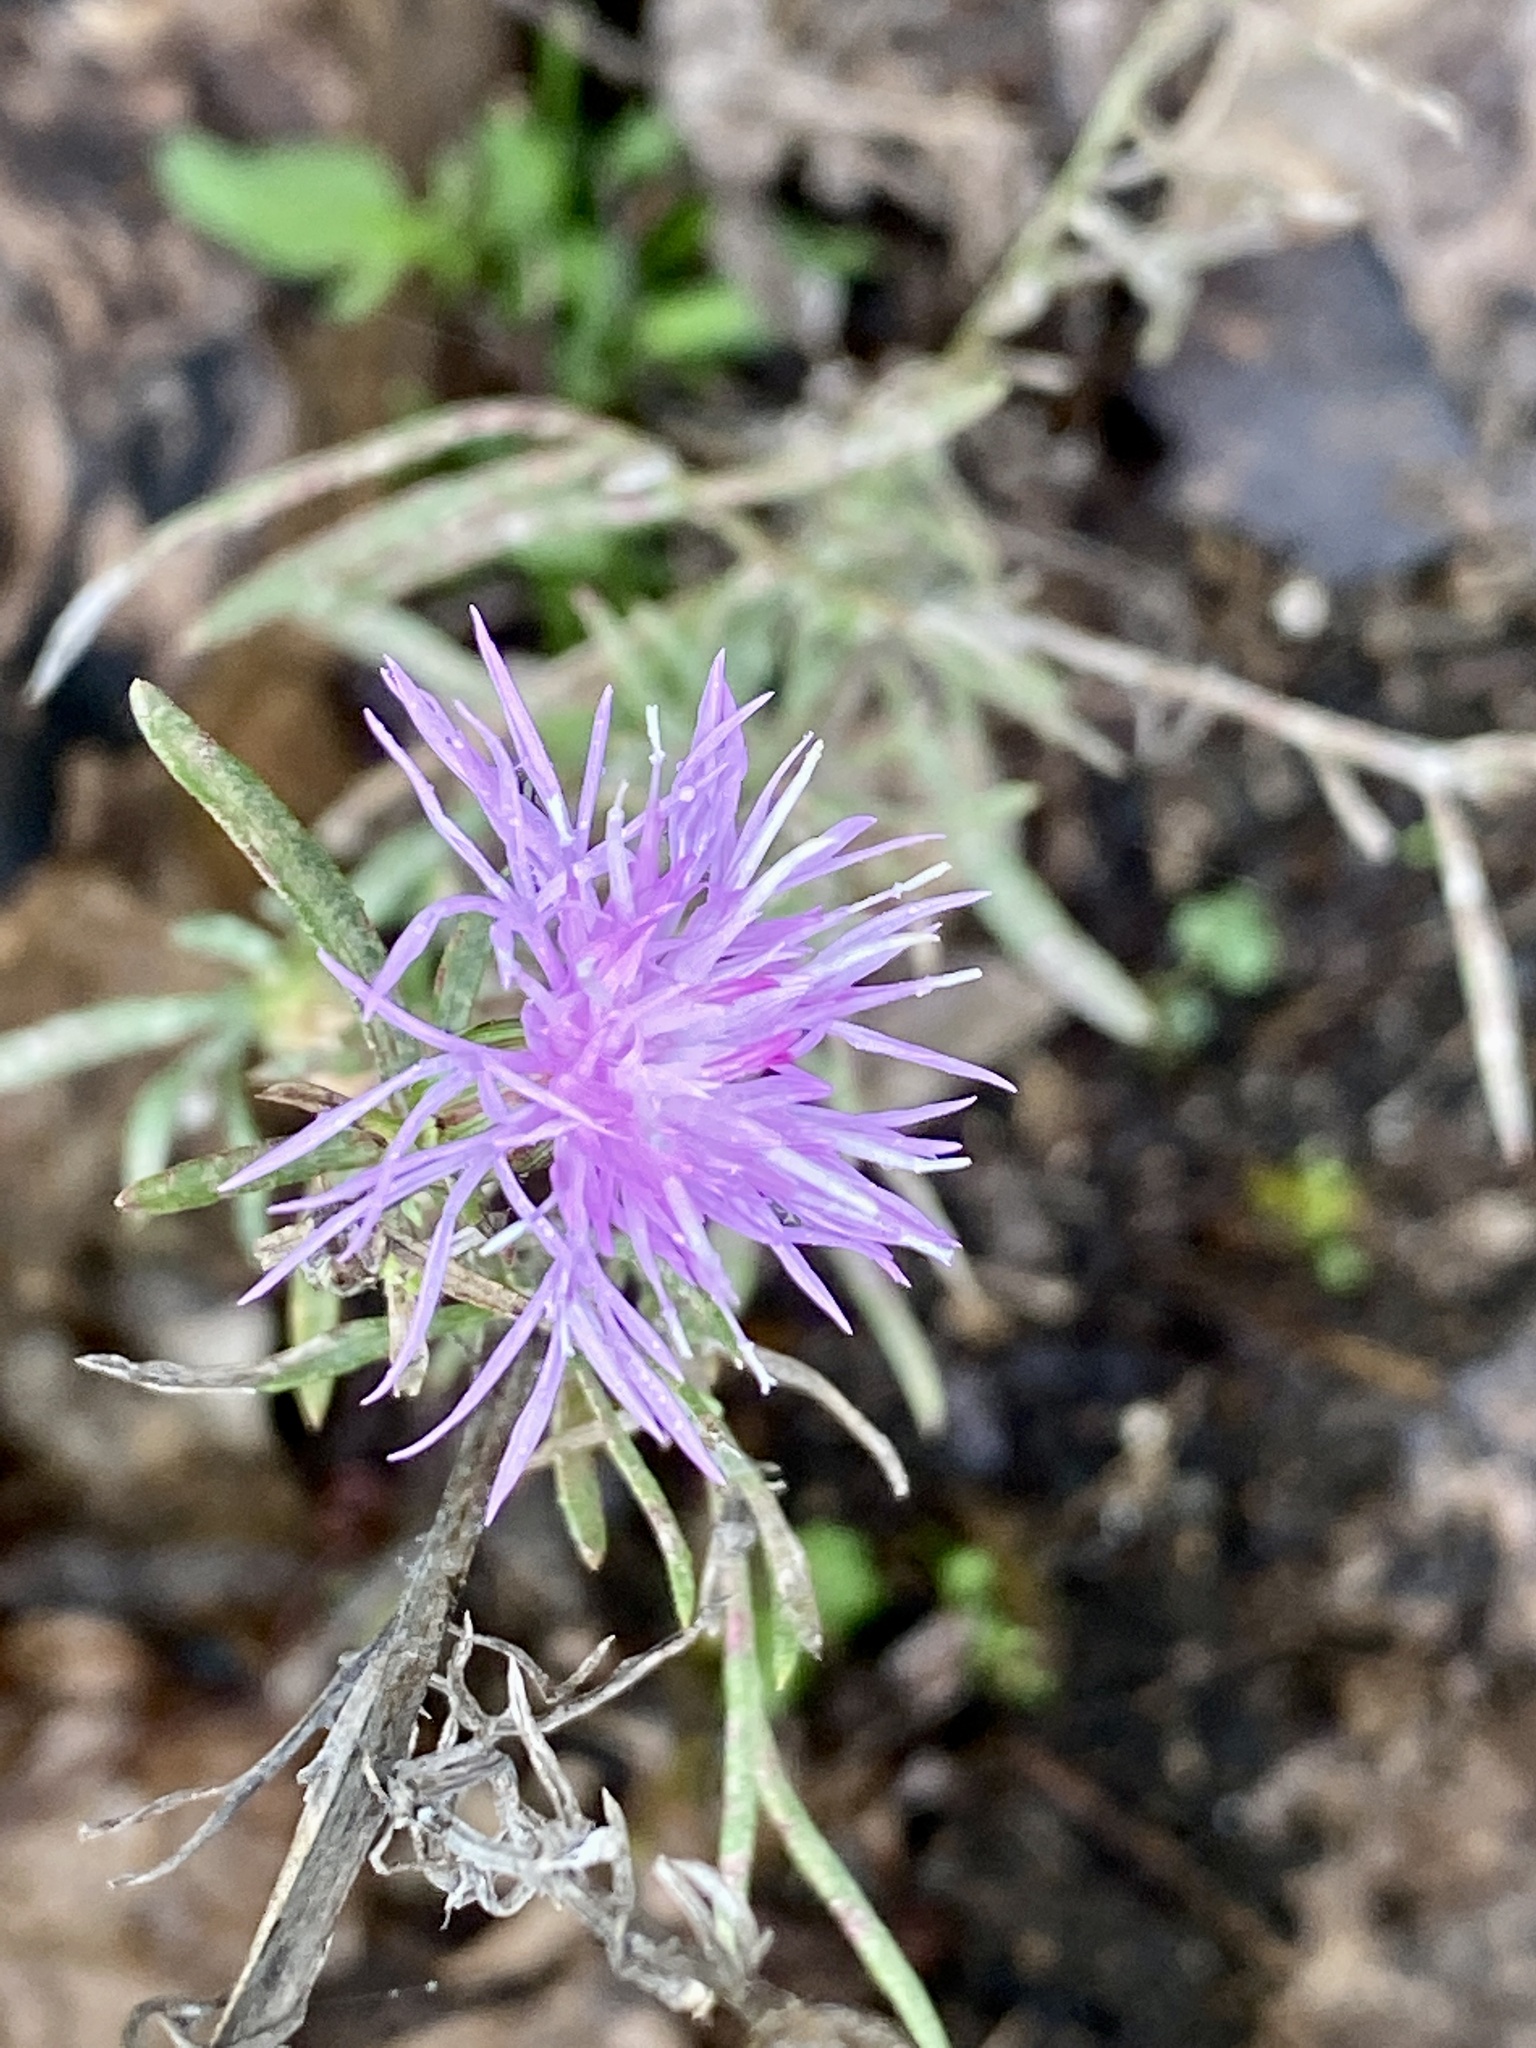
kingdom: Plantae
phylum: Tracheophyta
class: Magnoliopsida
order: Asterales
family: Asteraceae
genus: Centaurea
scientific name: Centaurea stoebe
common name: Spotted knapweed
